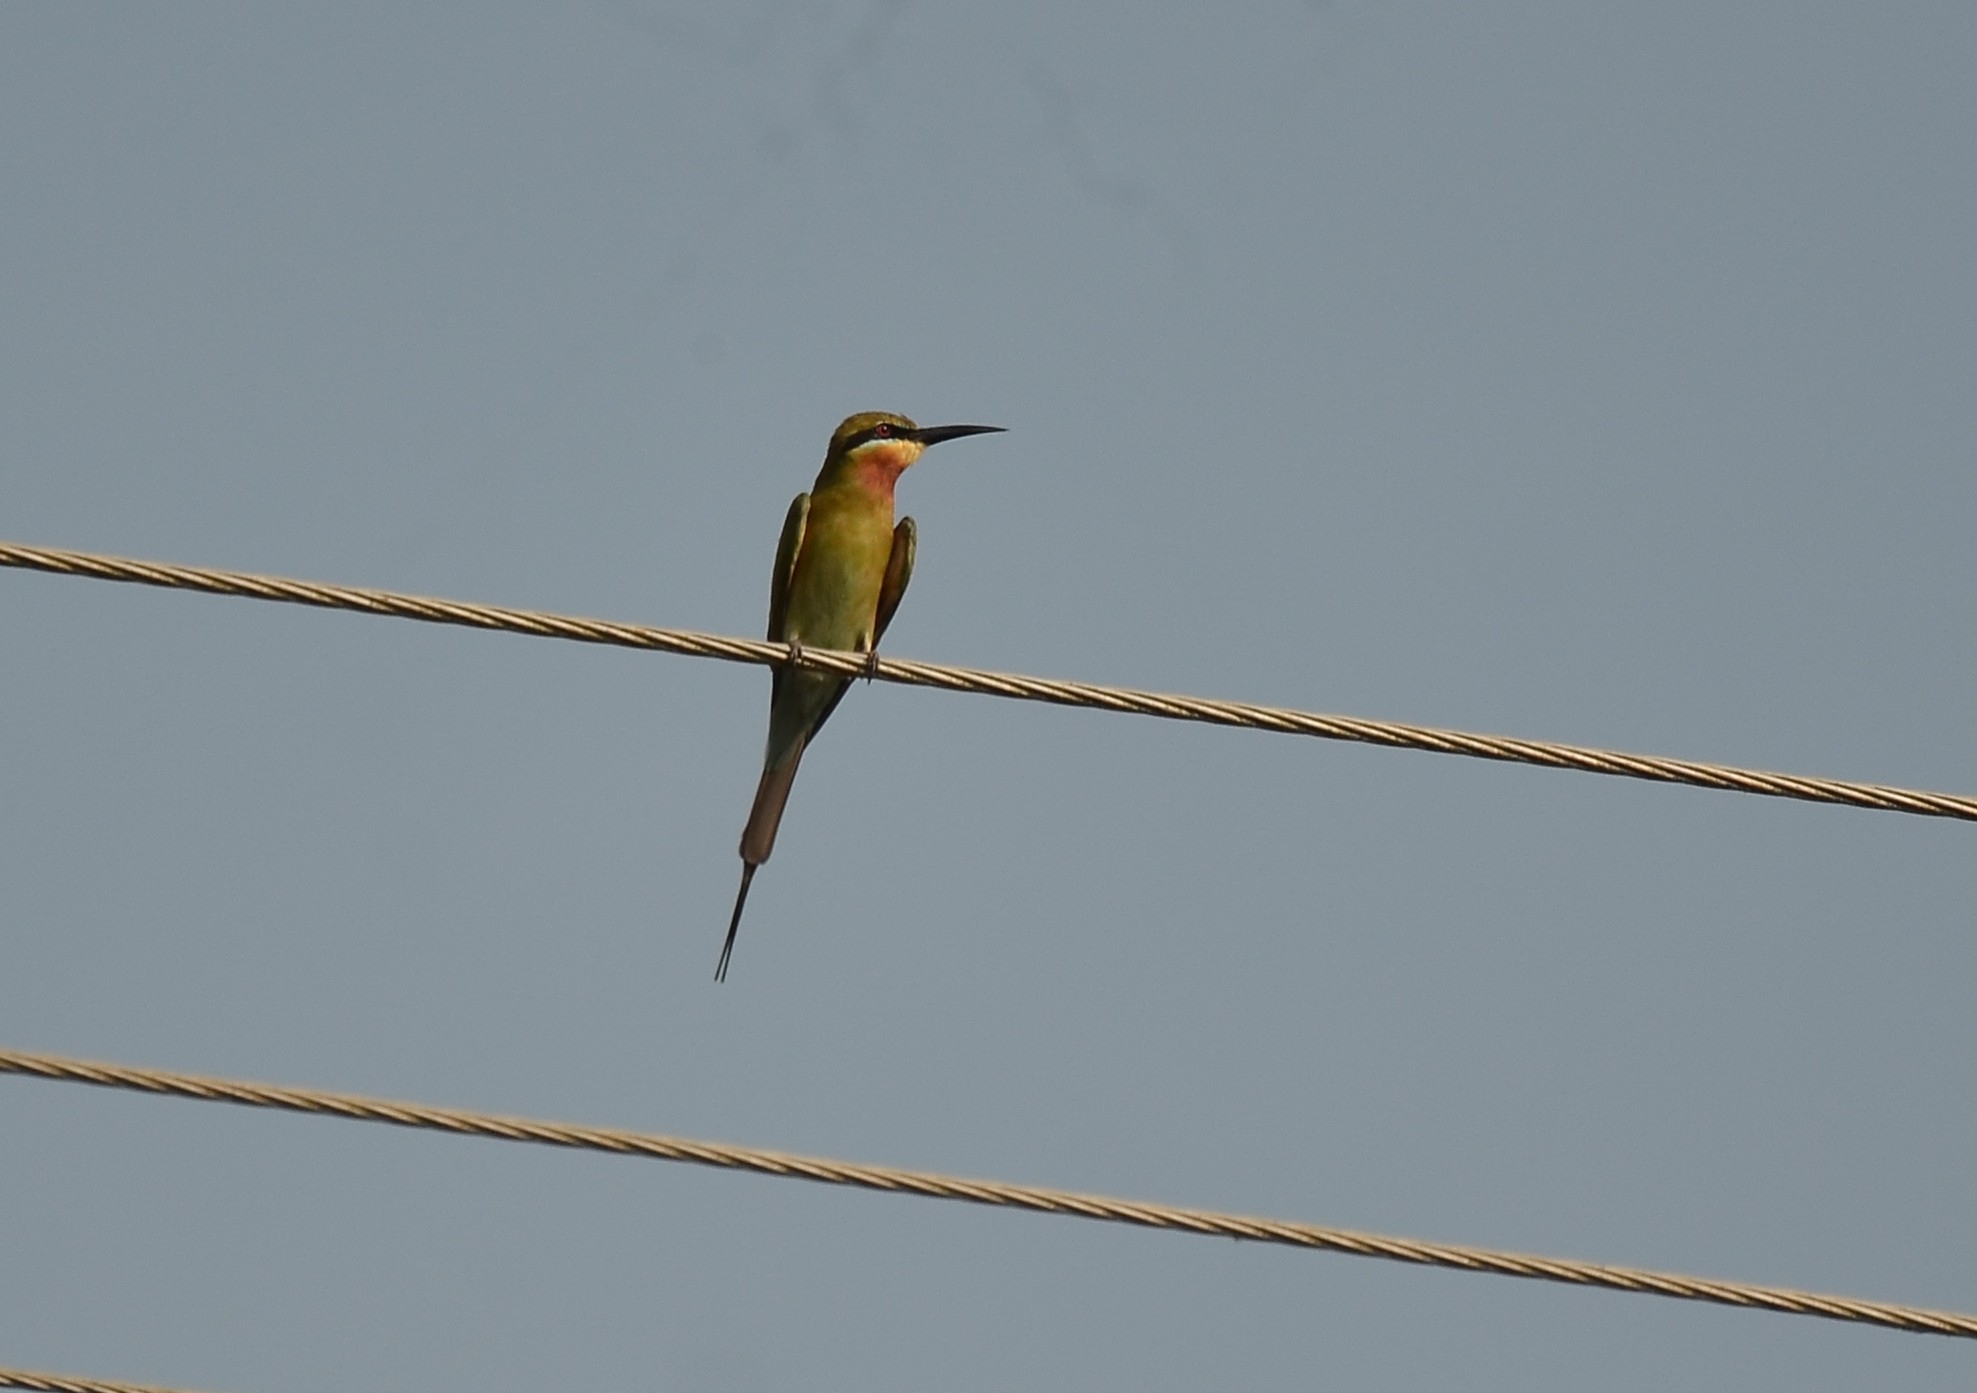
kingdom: Animalia
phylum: Chordata
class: Aves
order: Coraciiformes
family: Meropidae
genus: Merops
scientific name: Merops philippinus
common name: Blue-tailed bee-eater
